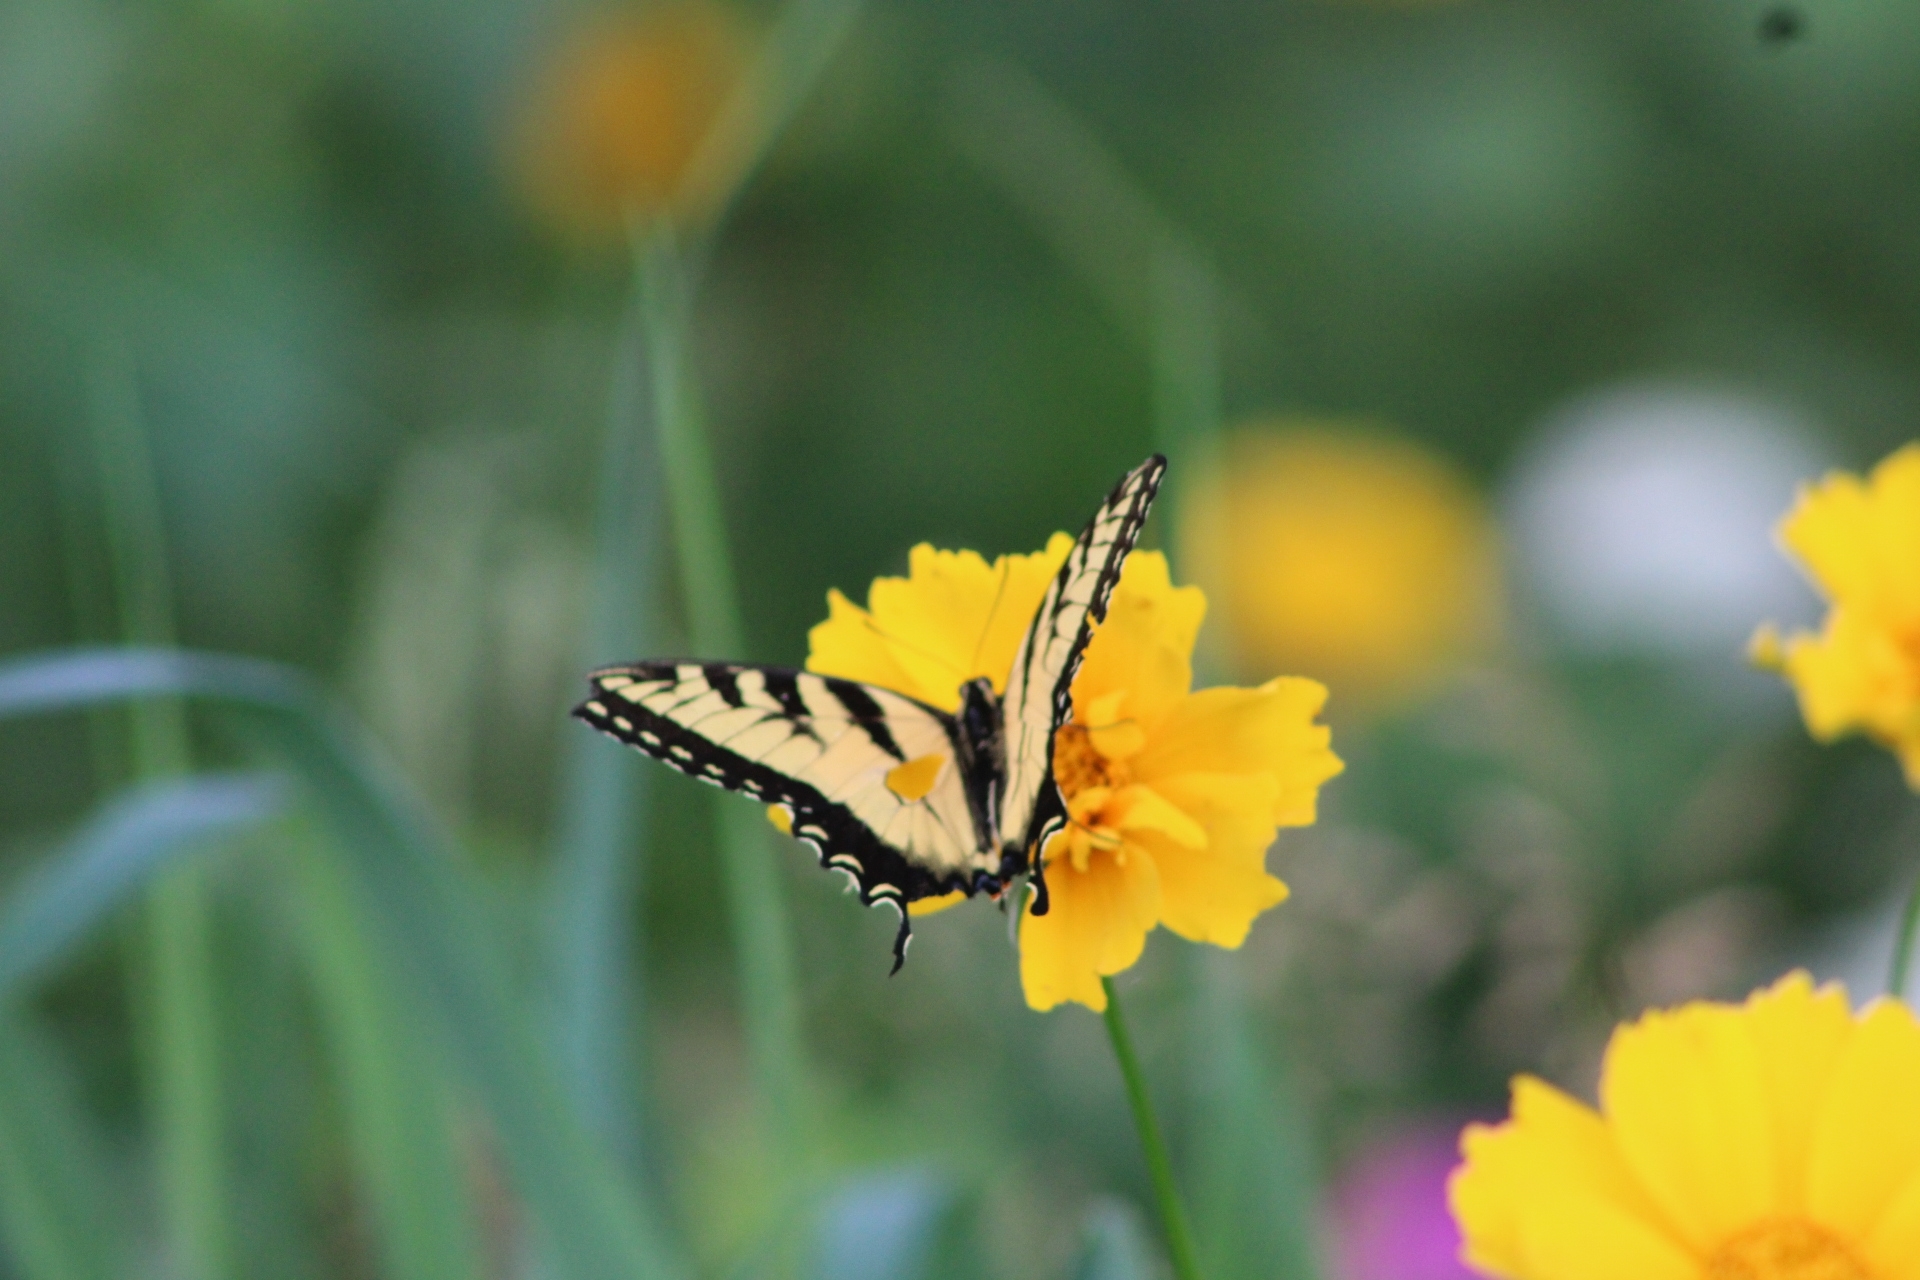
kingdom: Animalia
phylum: Arthropoda
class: Insecta
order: Lepidoptera
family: Papilionidae
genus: Papilio
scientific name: Papilio glaucus
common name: Tiger swallowtail
